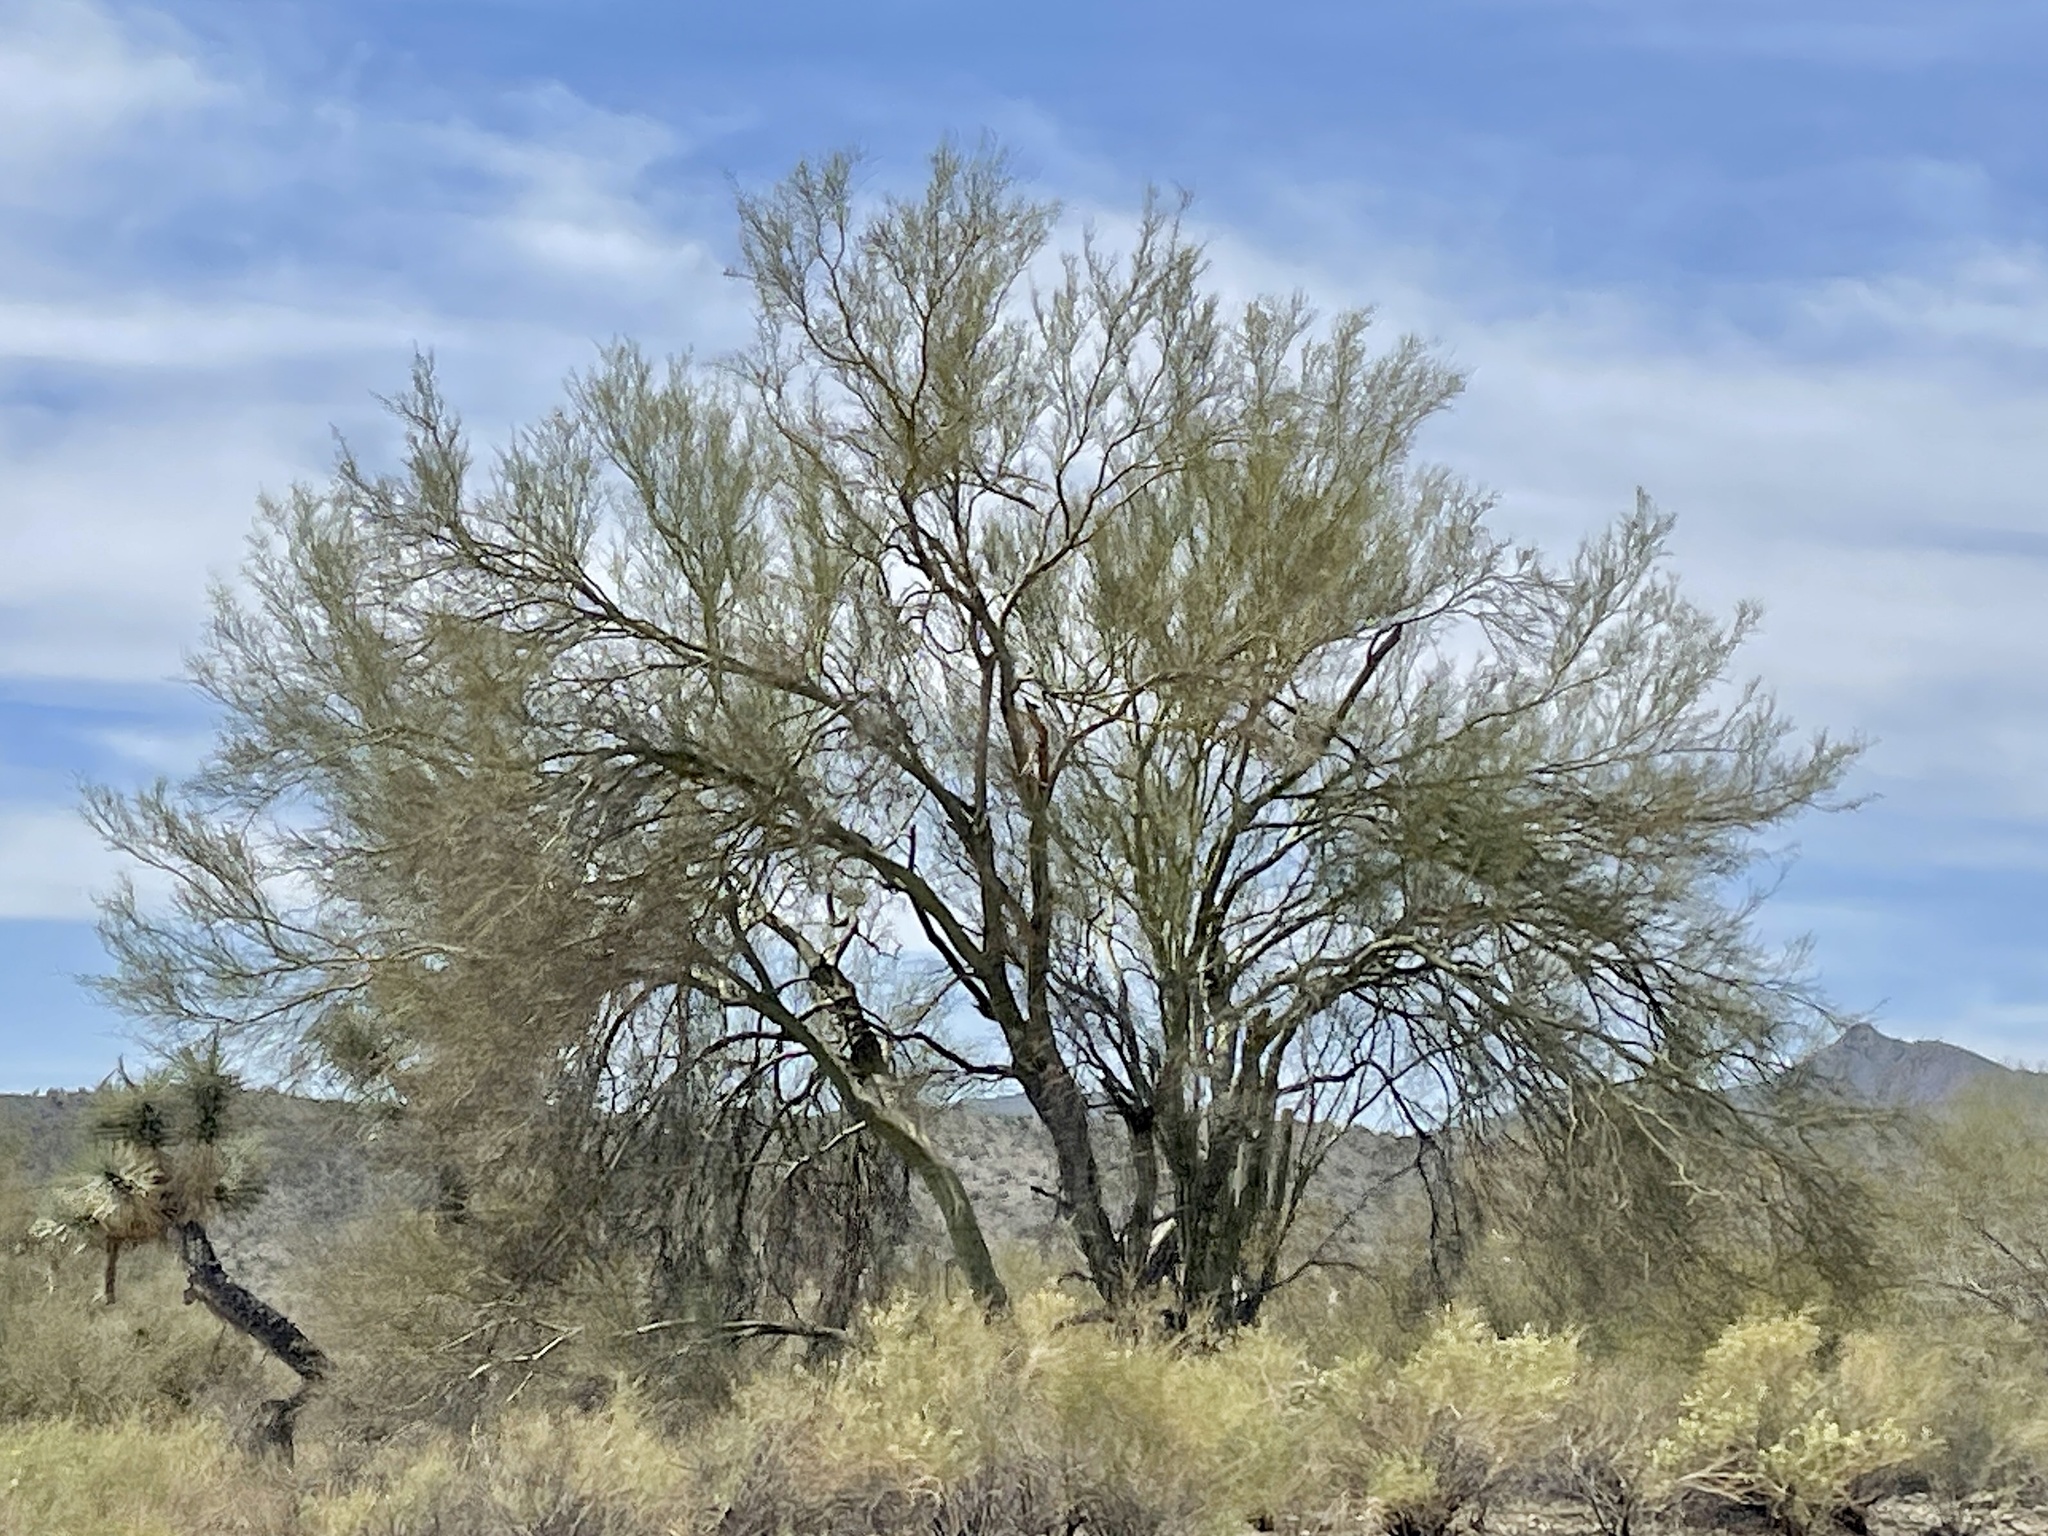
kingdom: Plantae
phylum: Tracheophyta
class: Magnoliopsida
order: Fabales
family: Fabaceae
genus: Parkinsonia
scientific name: Parkinsonia microphylla
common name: Yellow paloverde
